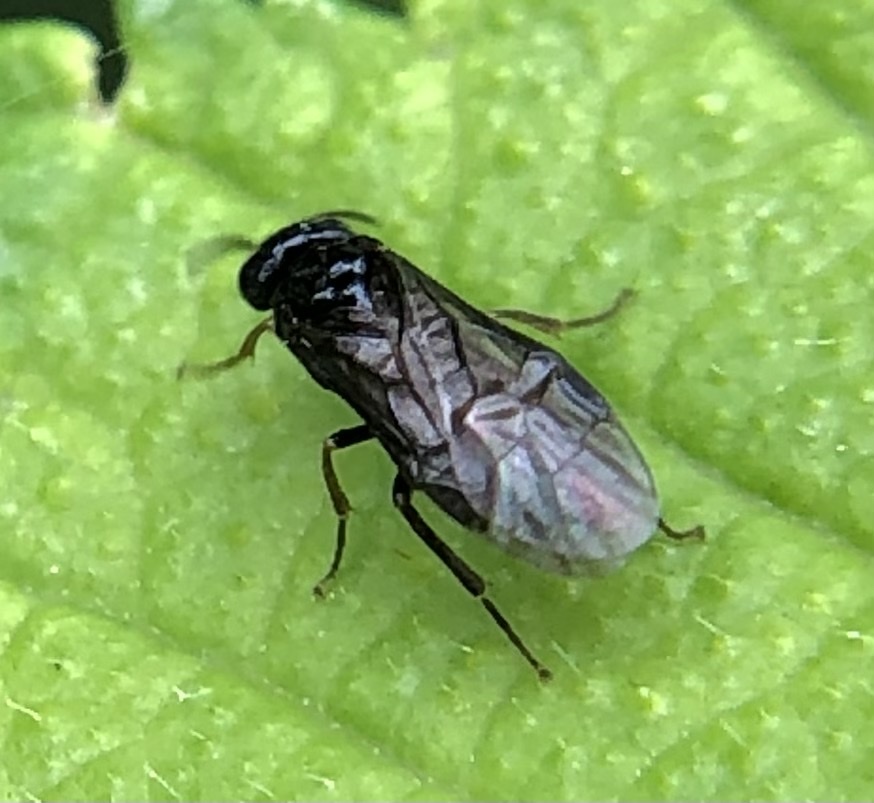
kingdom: Animalia
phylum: Arthropoda
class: Insecta
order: Hymenoptera
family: Tenthredinidae
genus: Caliroa
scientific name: Caliroa cerasi
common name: Pear sawfly
